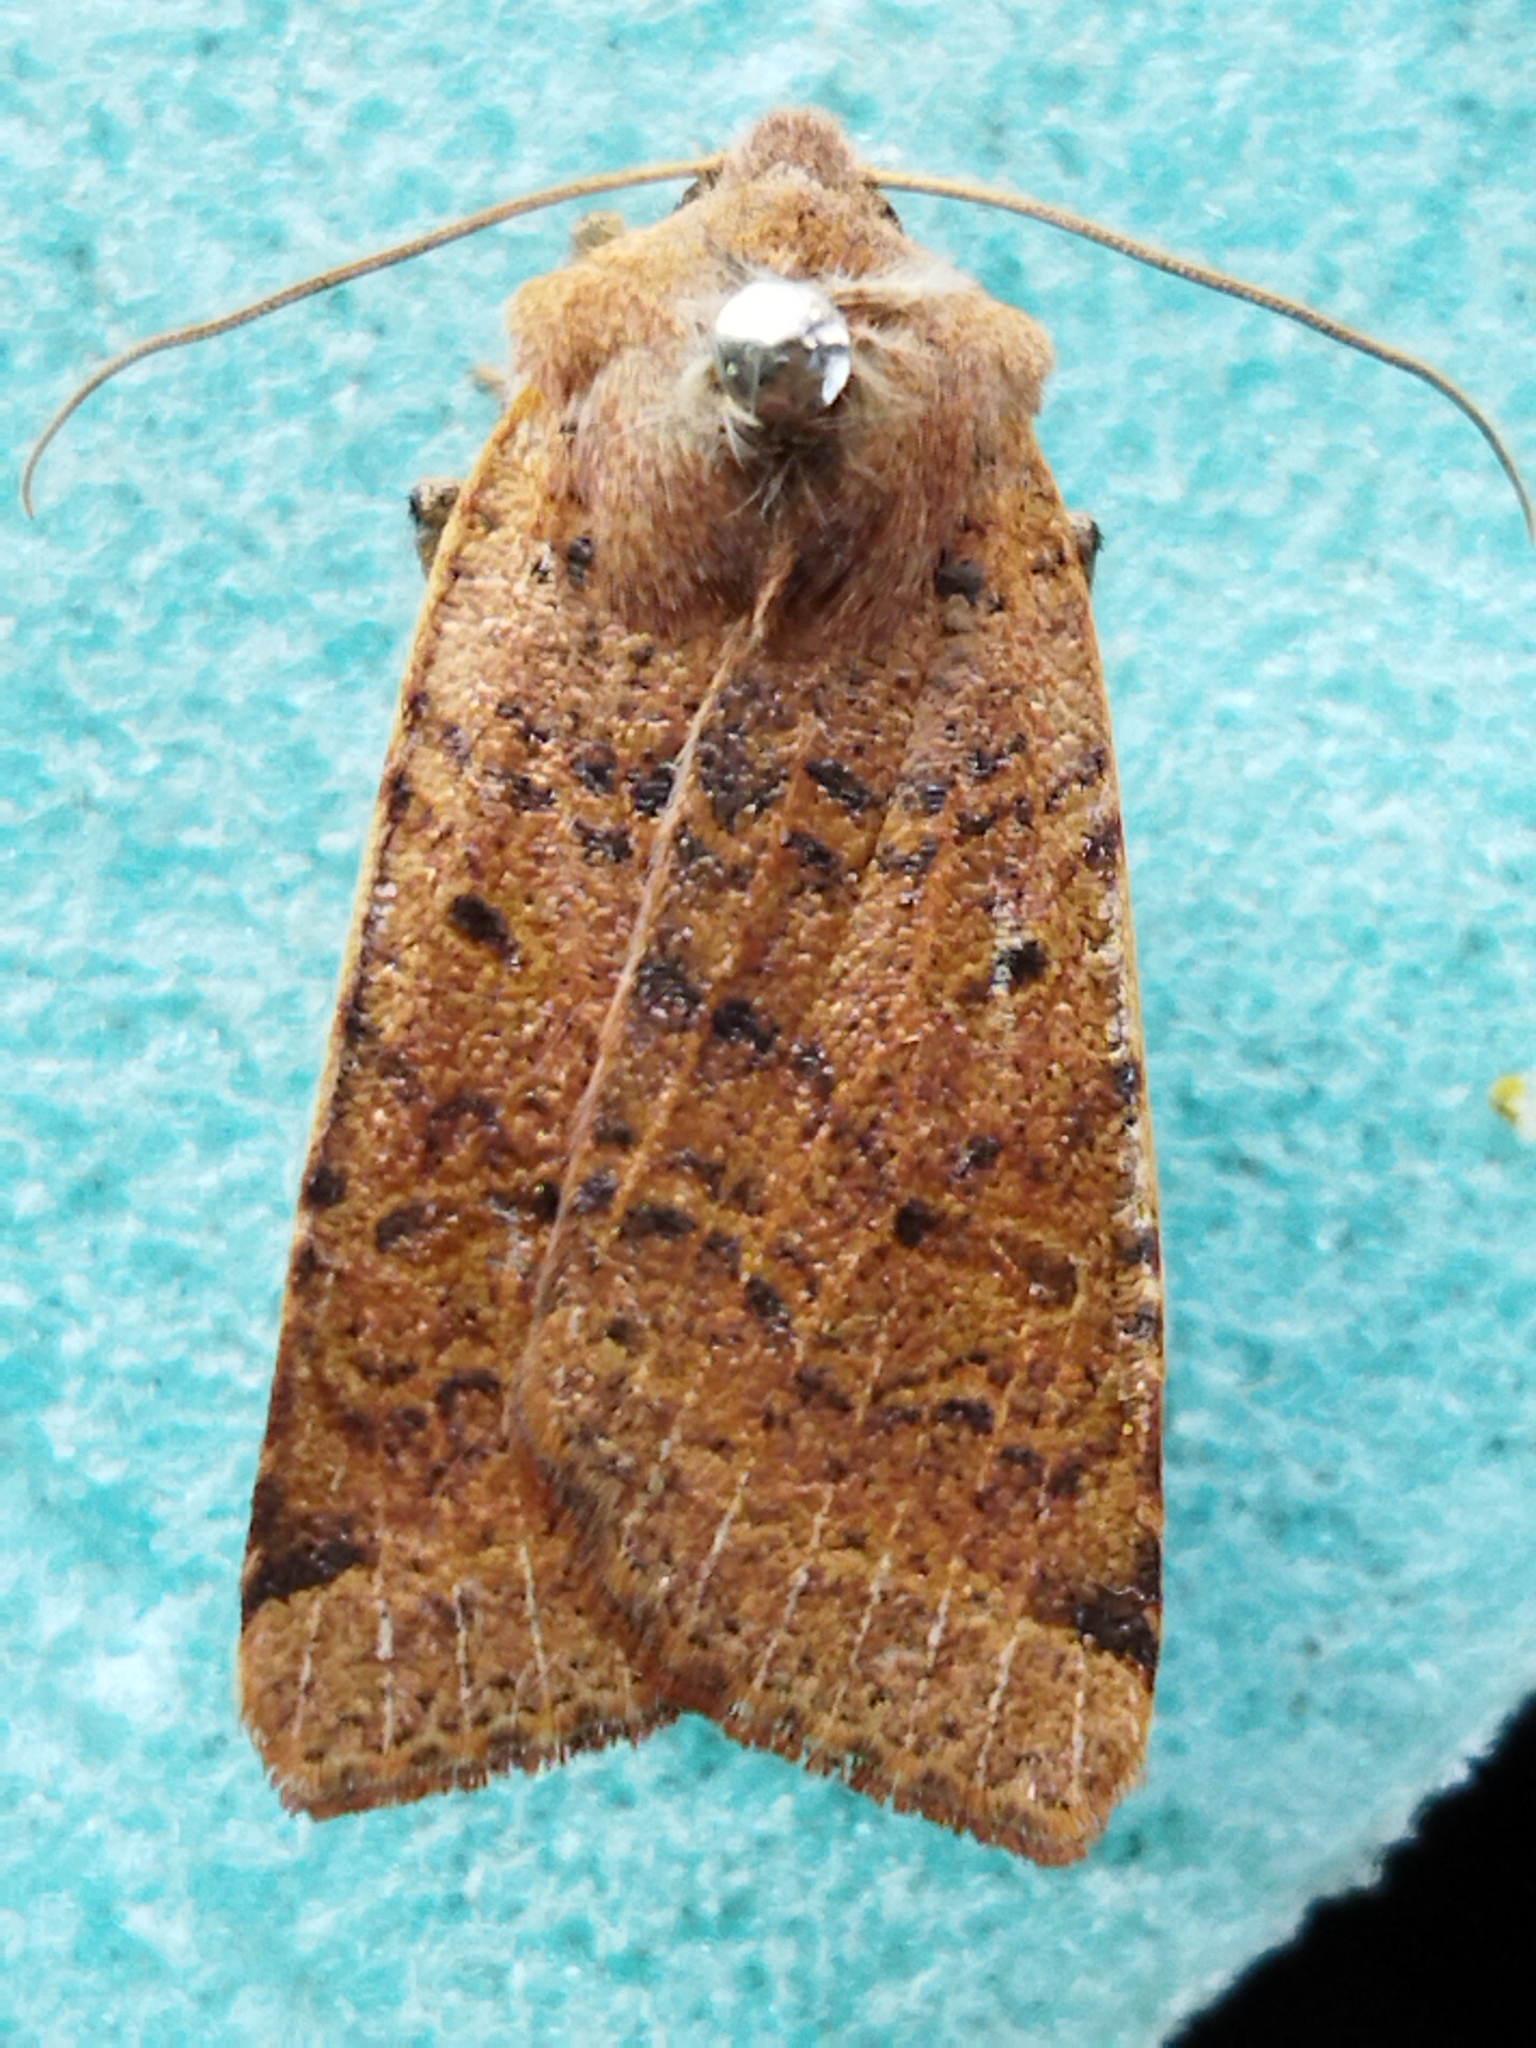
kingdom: Animalia
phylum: Arthropoda
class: Insecta
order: Lepidoptera
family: Noctuidae
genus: Agrochola
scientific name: Agrochola lychnidis
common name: Beaded chestnut
